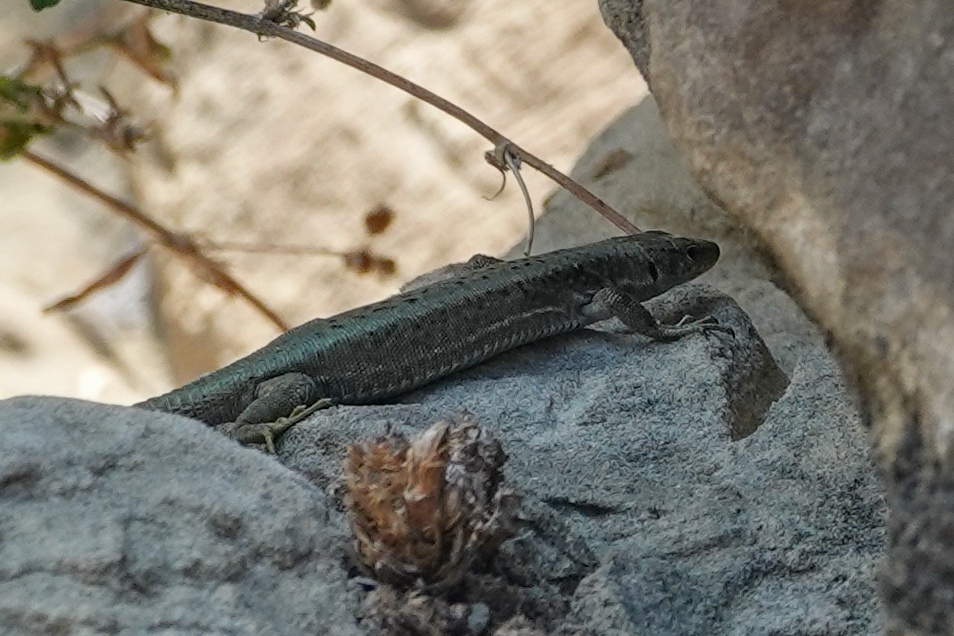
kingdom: Animalia
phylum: Chordata
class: Squamata
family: Lacertidae
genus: Darevskia
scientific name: Darevskia saxicola
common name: Rock lizard
